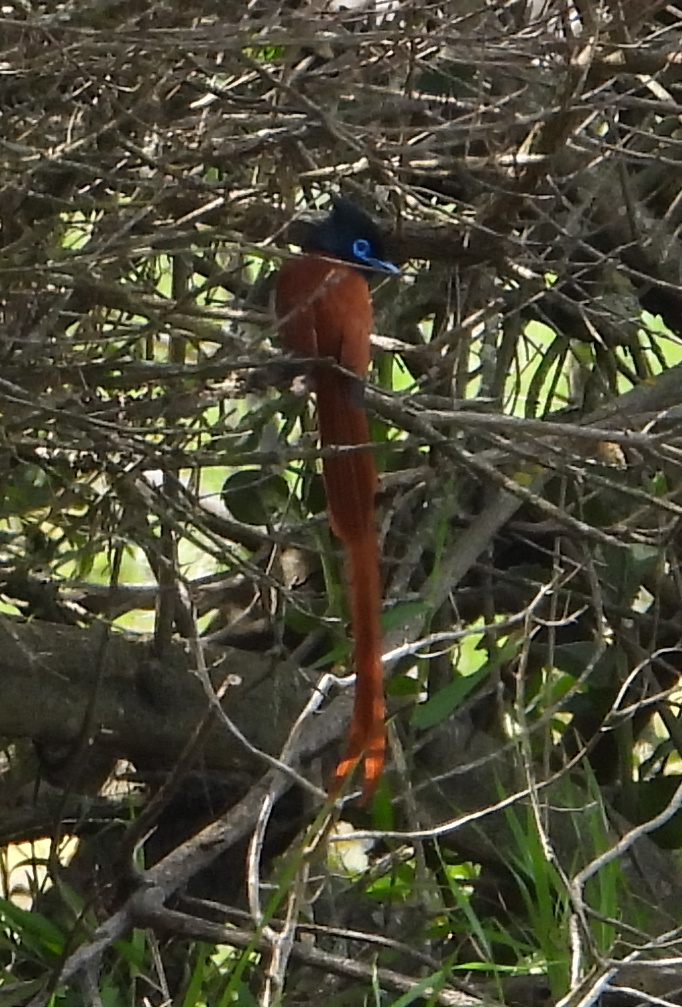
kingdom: Animalia
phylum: Chordata
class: Aves
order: Passeriformes
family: Monarchidae
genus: Terpsiphone
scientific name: Terpsiphone viridis
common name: African paradise flycatcher
